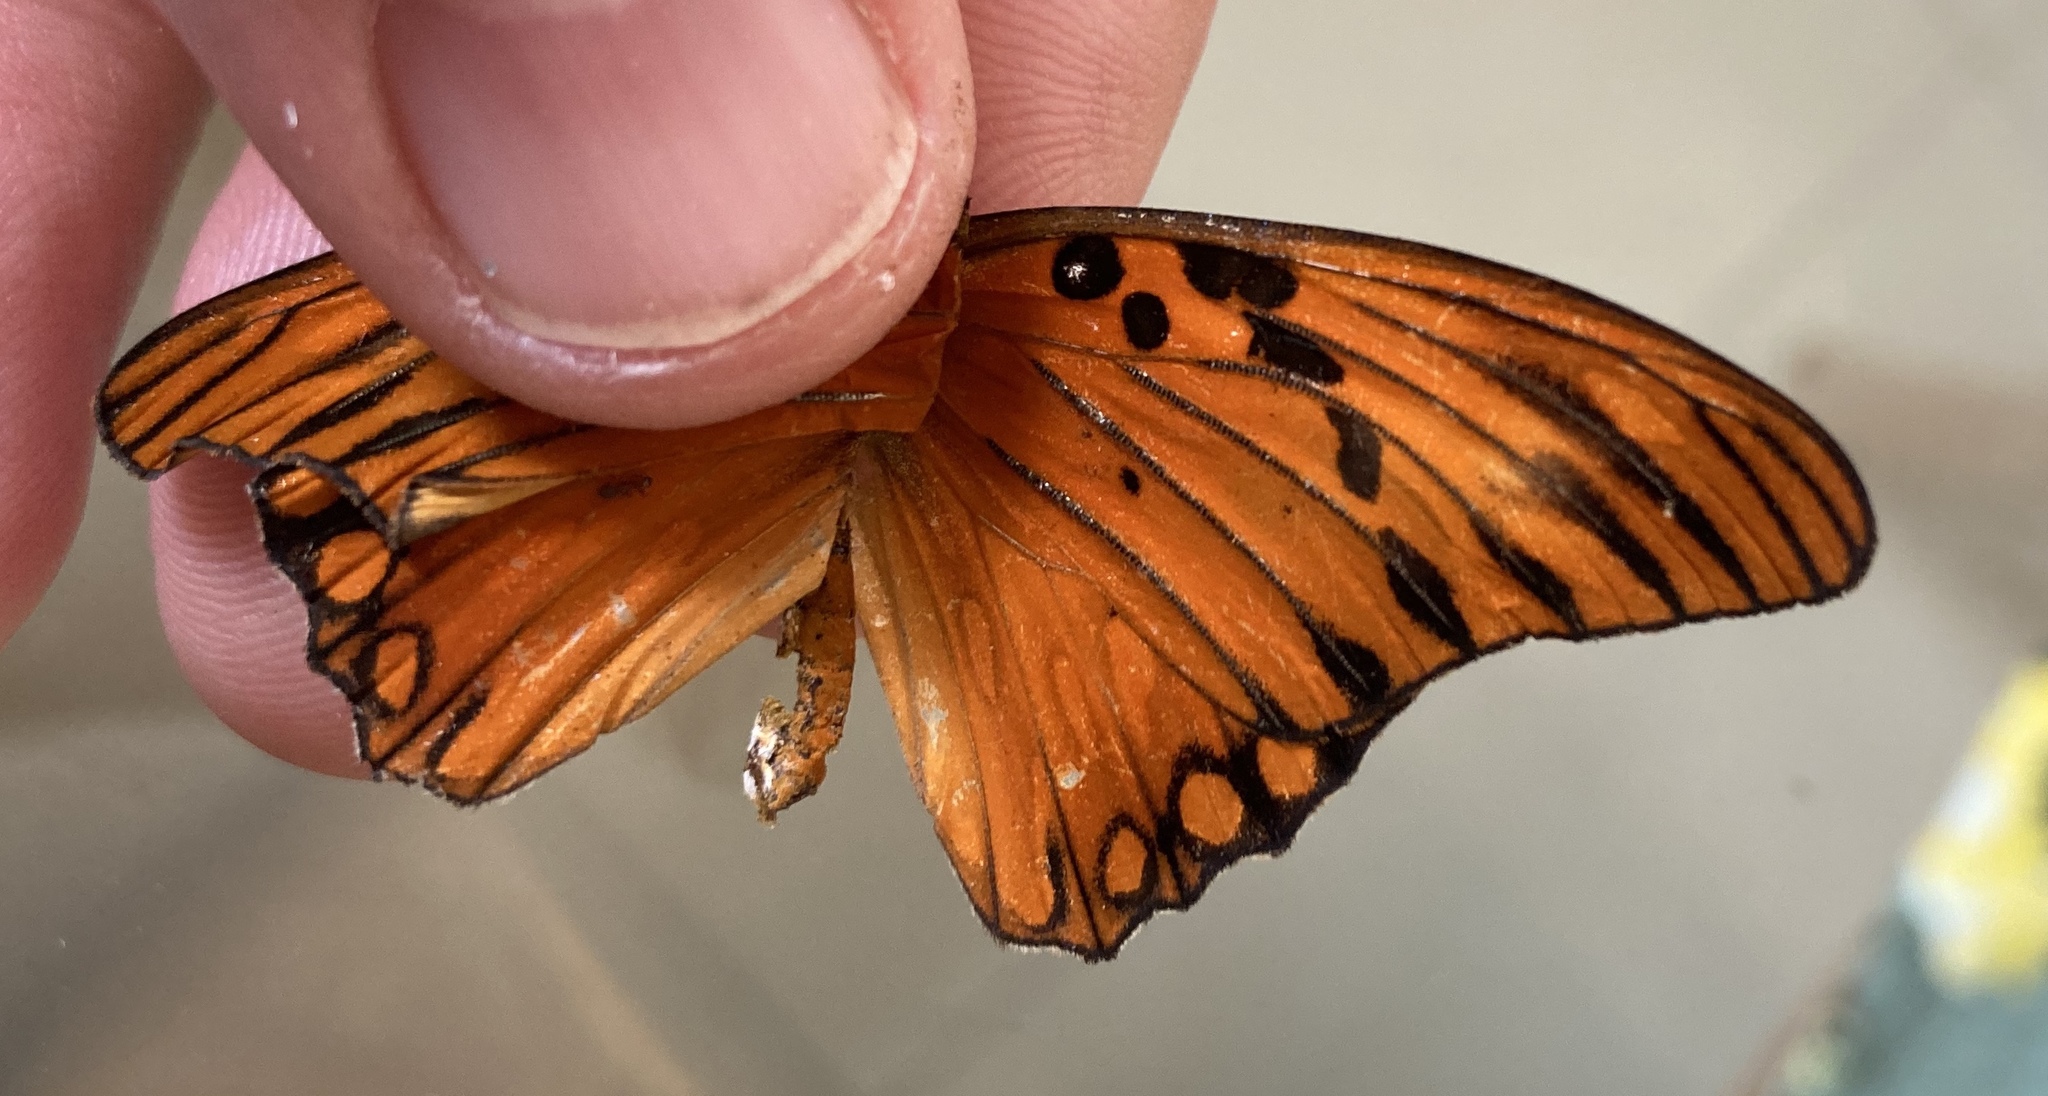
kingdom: Animalia
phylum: Arthropoda
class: Insecta
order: Lepidoptera
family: Nymphalidae
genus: Dione
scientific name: Dione vanillae
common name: Gulf fritillary
